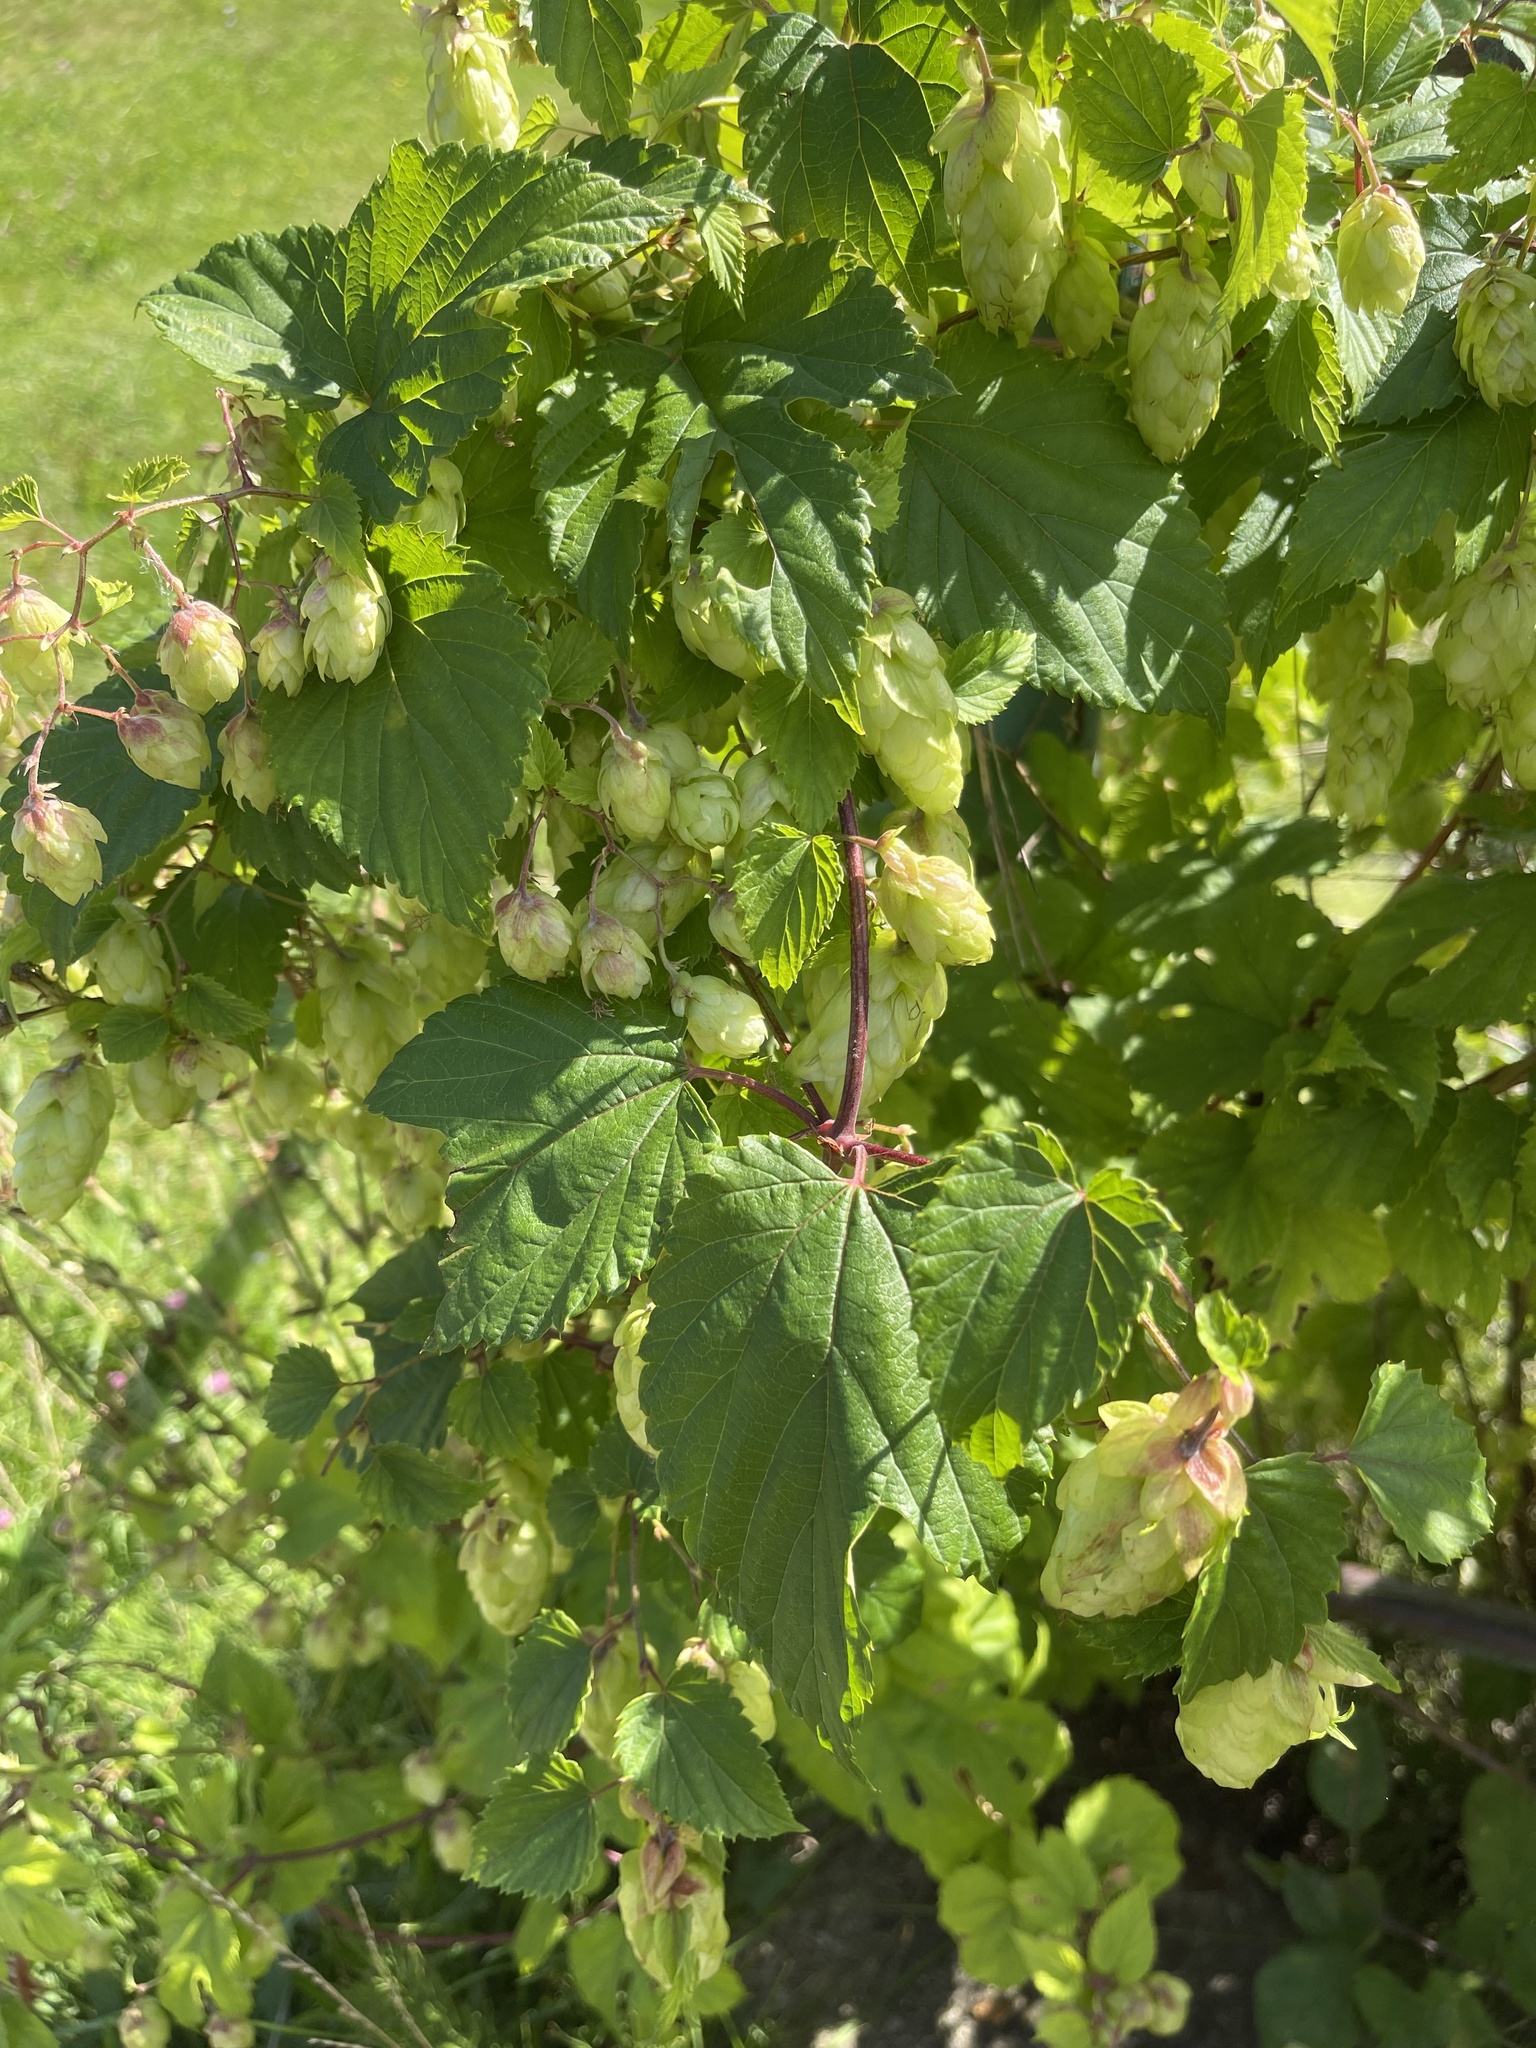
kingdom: Plantae
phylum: Tracheophyta
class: Magnoliopsida
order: Rosales
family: Cannabaceae
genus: Humulus
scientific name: Humulus lupulus
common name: Hop
